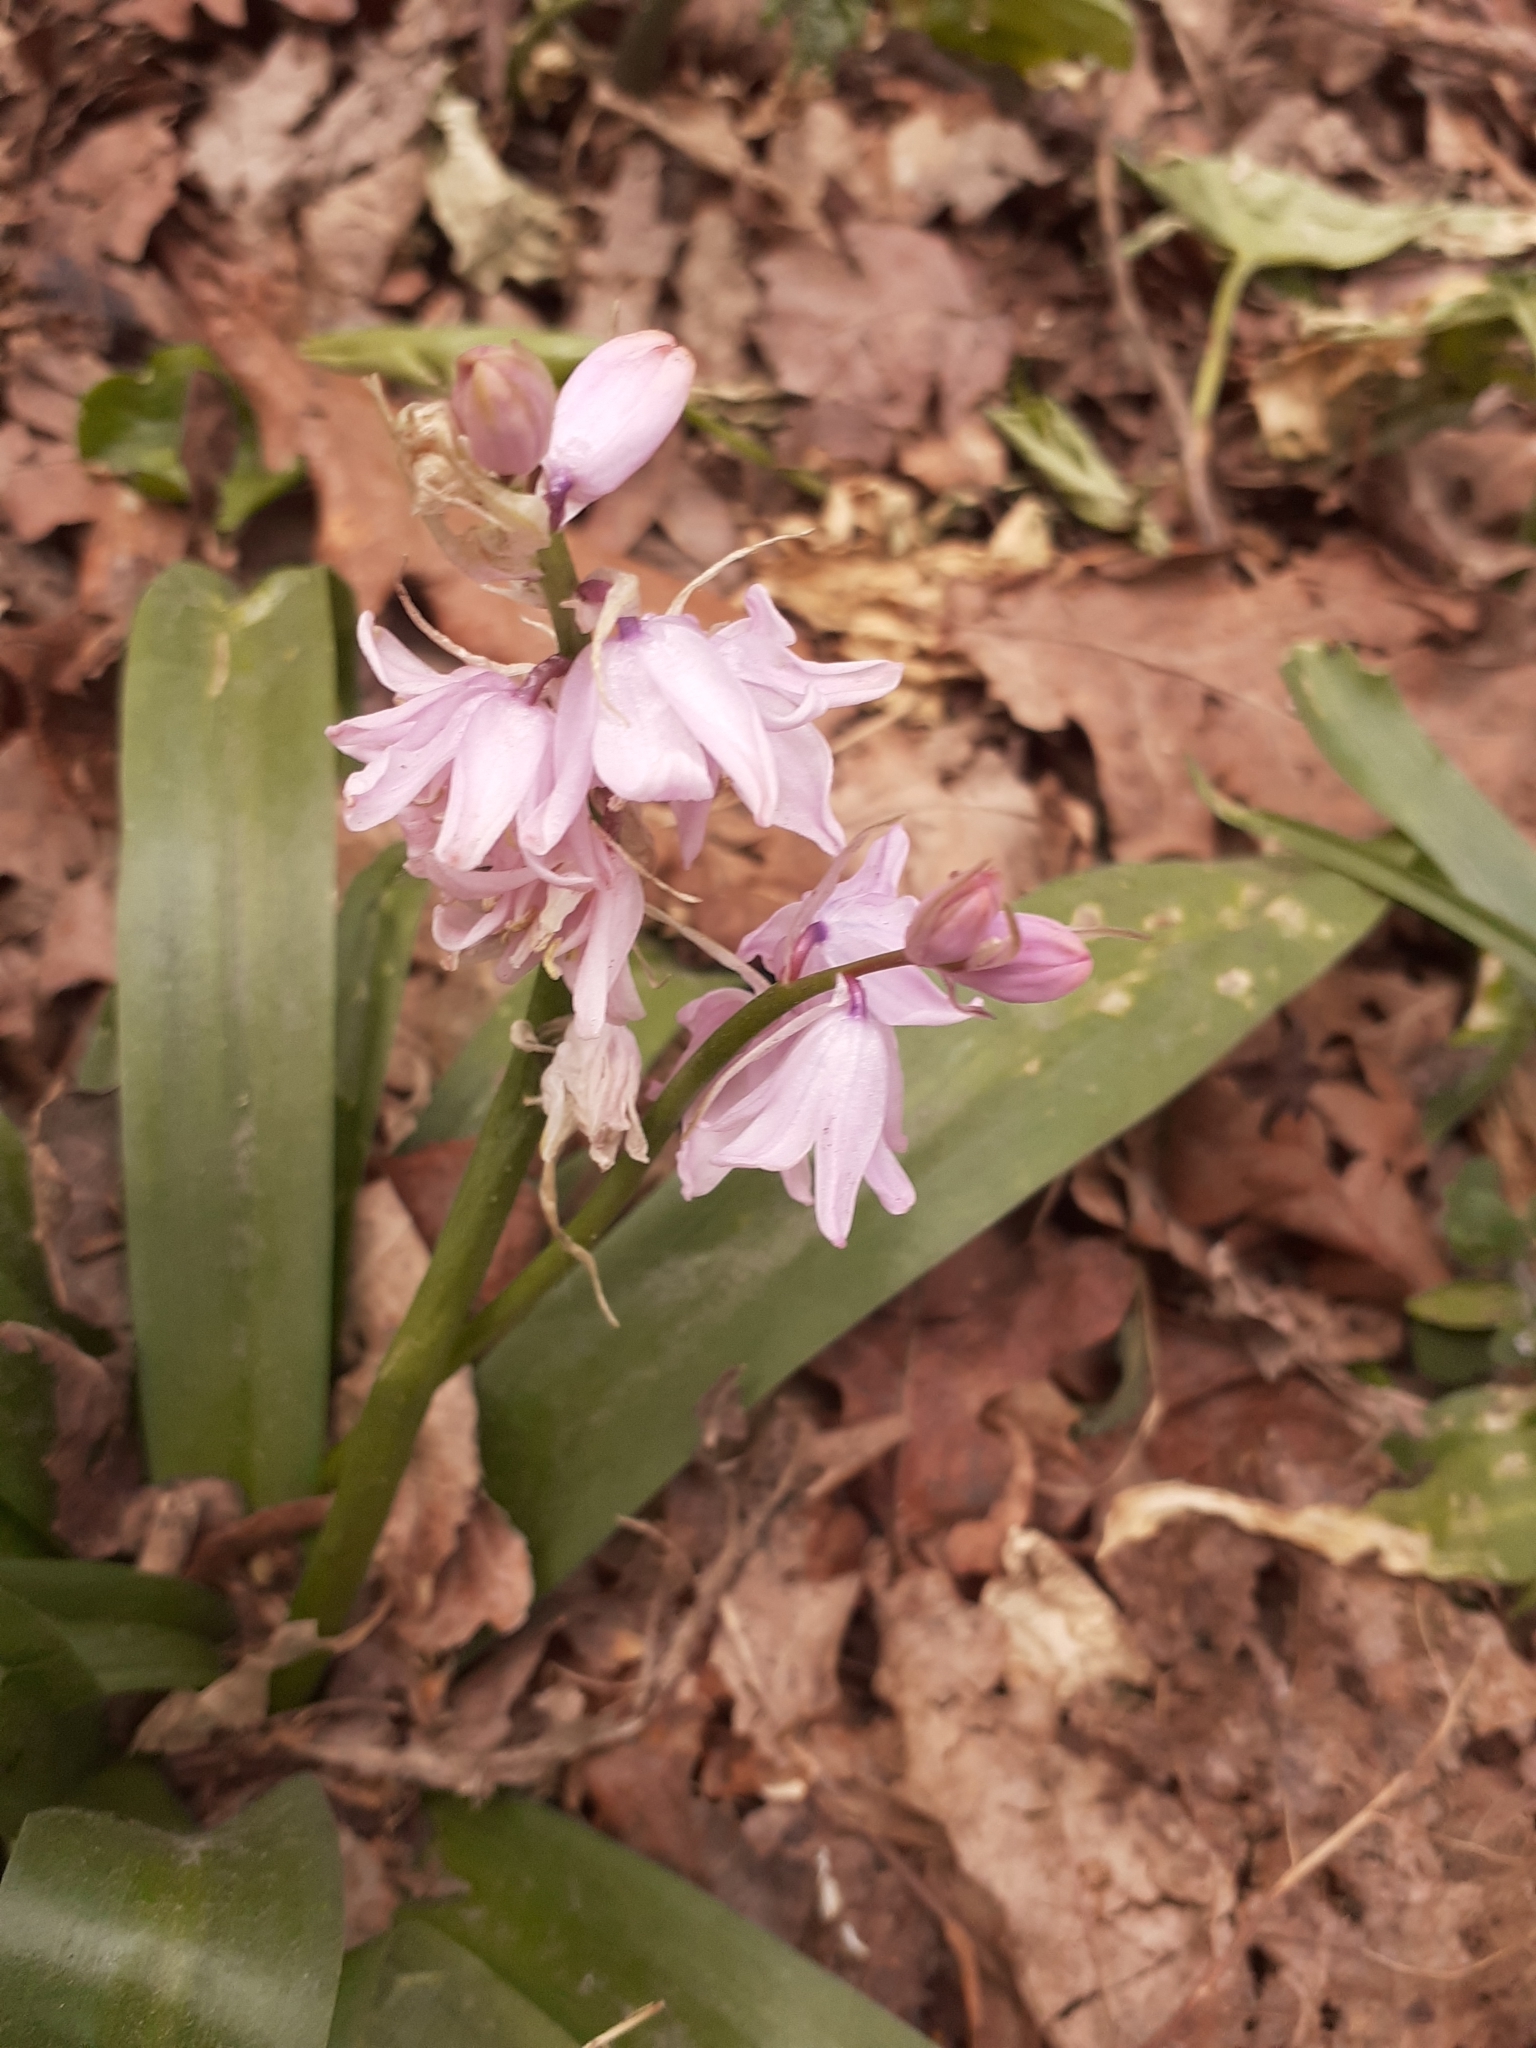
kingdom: Plantae
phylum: Tracheophyta
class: Liliopsida
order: Asparagales
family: Asparagaceae
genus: Hyacinthoides
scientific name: Hyacinthoides massartiana
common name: Hyacinthoides
